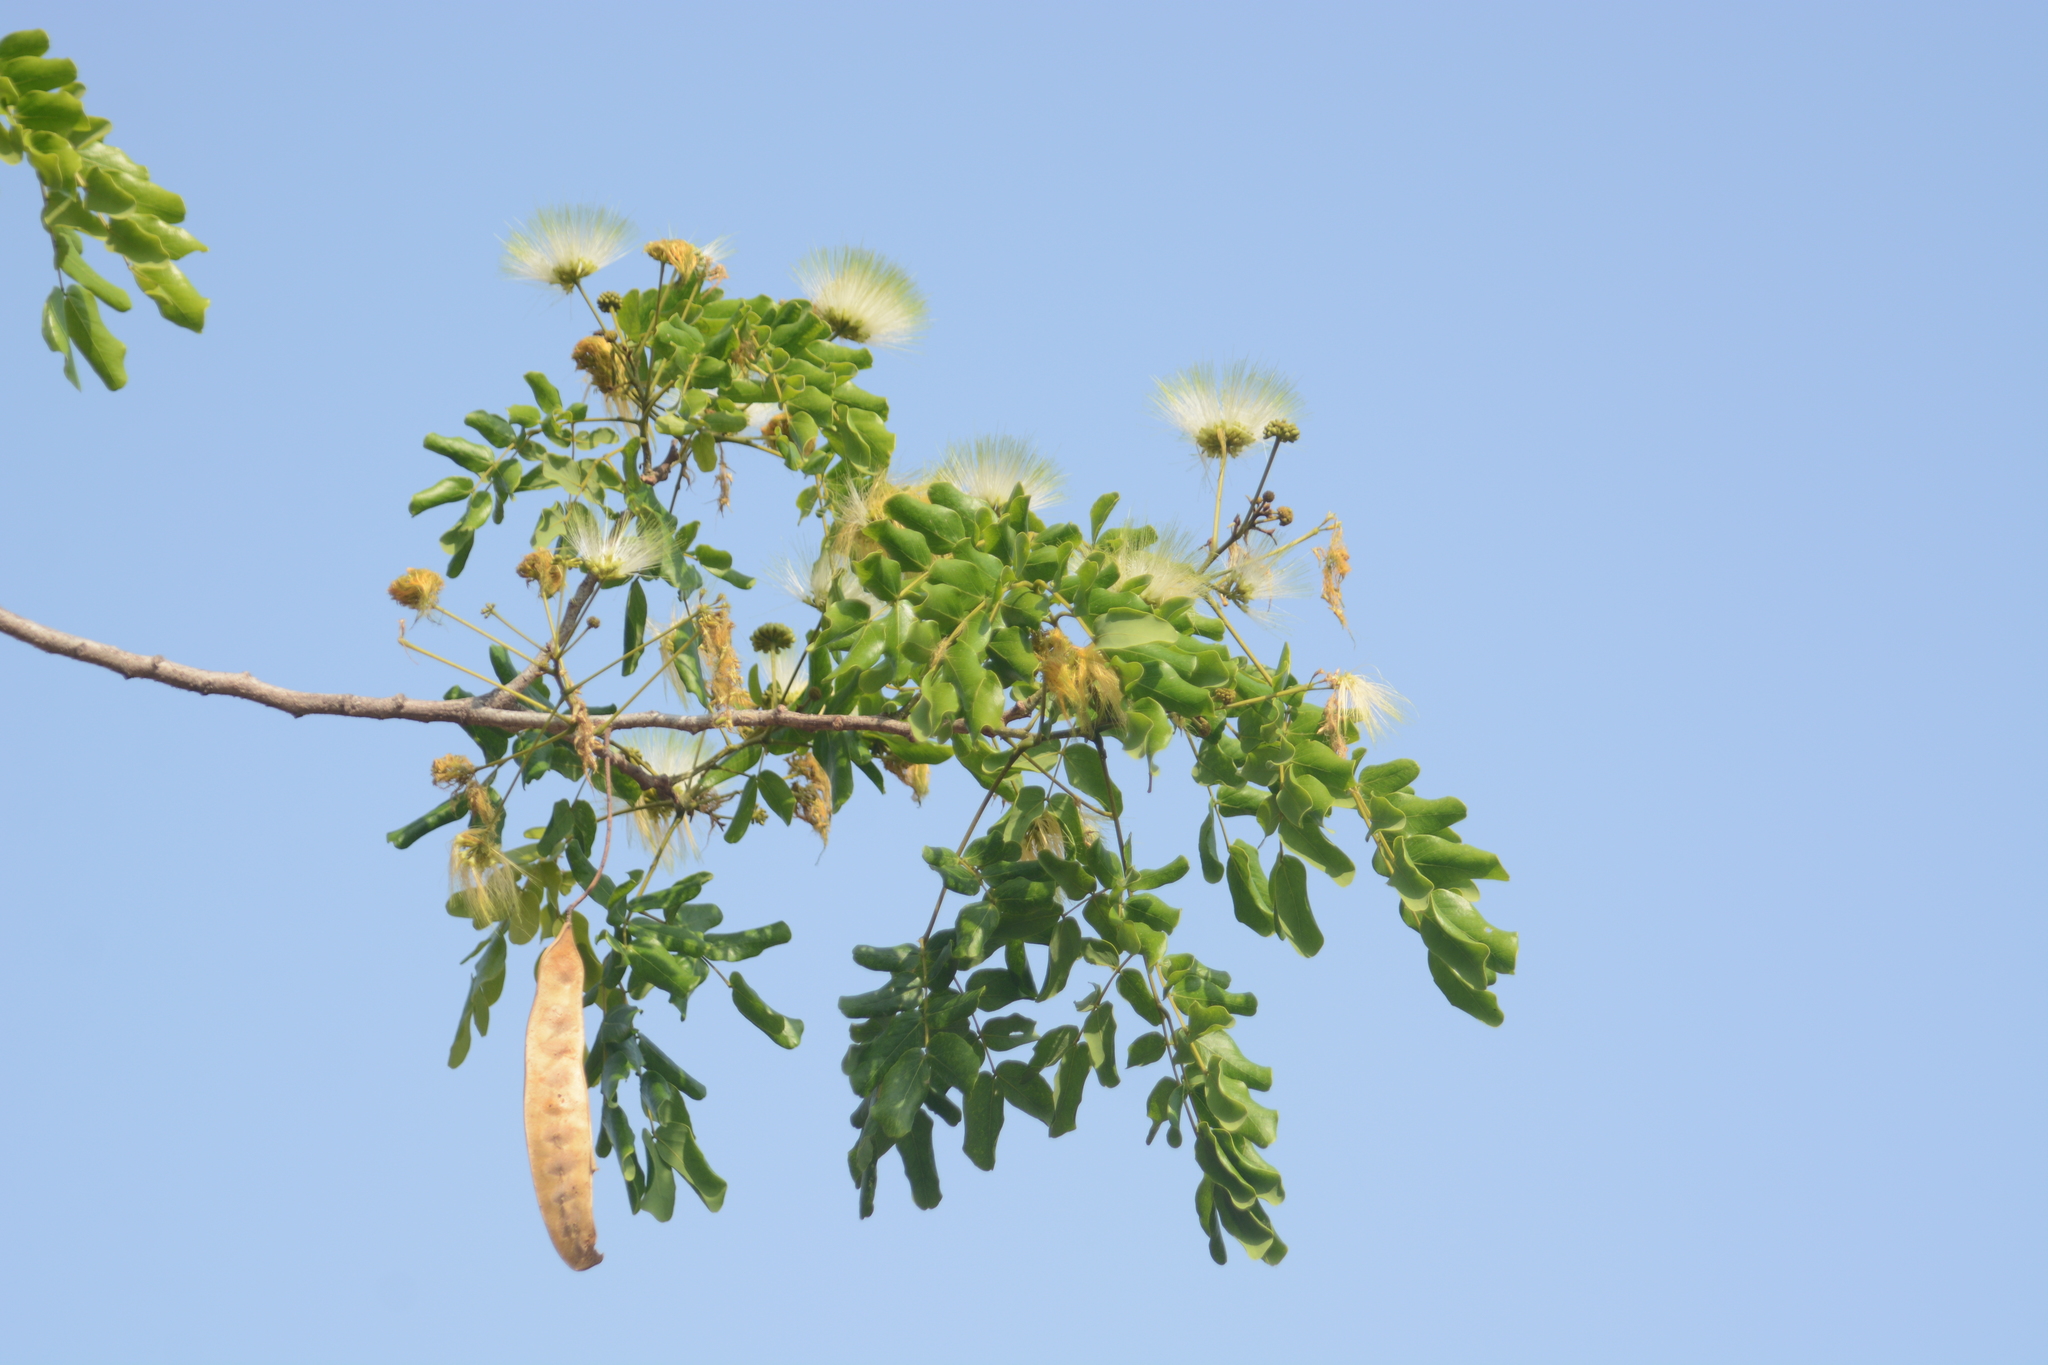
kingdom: Plantae
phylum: Tracheophyta
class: Magnoliopsida
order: Fabales
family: Fabaceae
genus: Albizia
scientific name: Albizia lebbeck
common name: Woman's tongue
